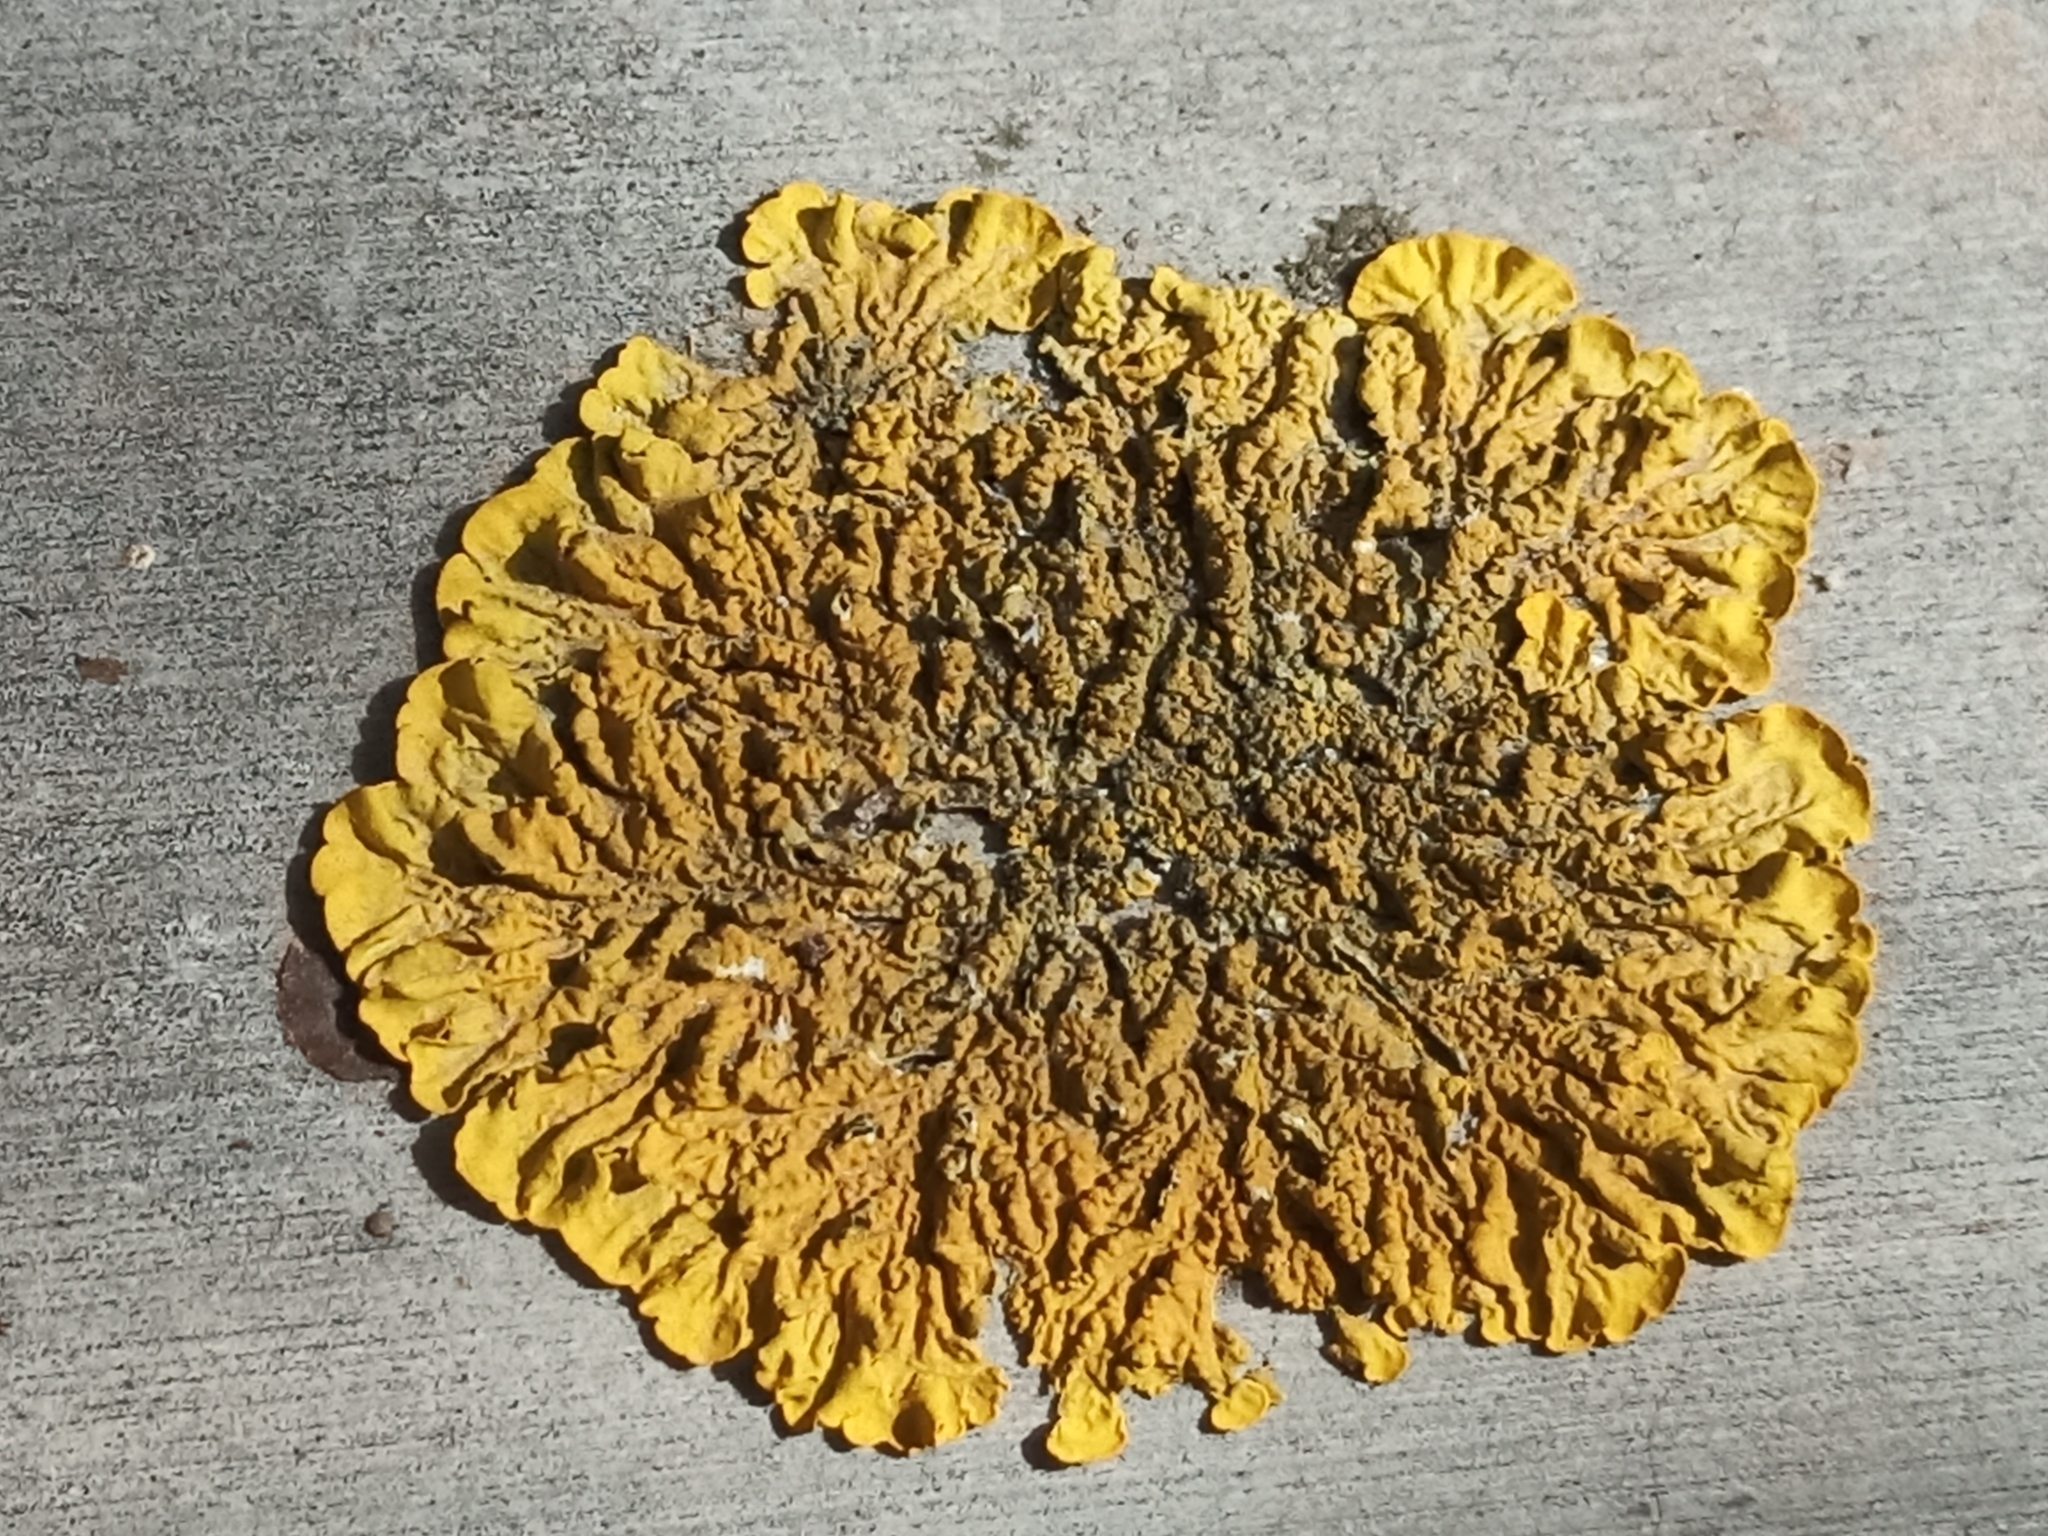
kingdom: Fungi
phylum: Ascomycota
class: Lecanoromycetes
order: Teloschistales
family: Teloschistaceae
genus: Xanthoria
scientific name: Xanthoria parietina
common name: Common orange lichen
